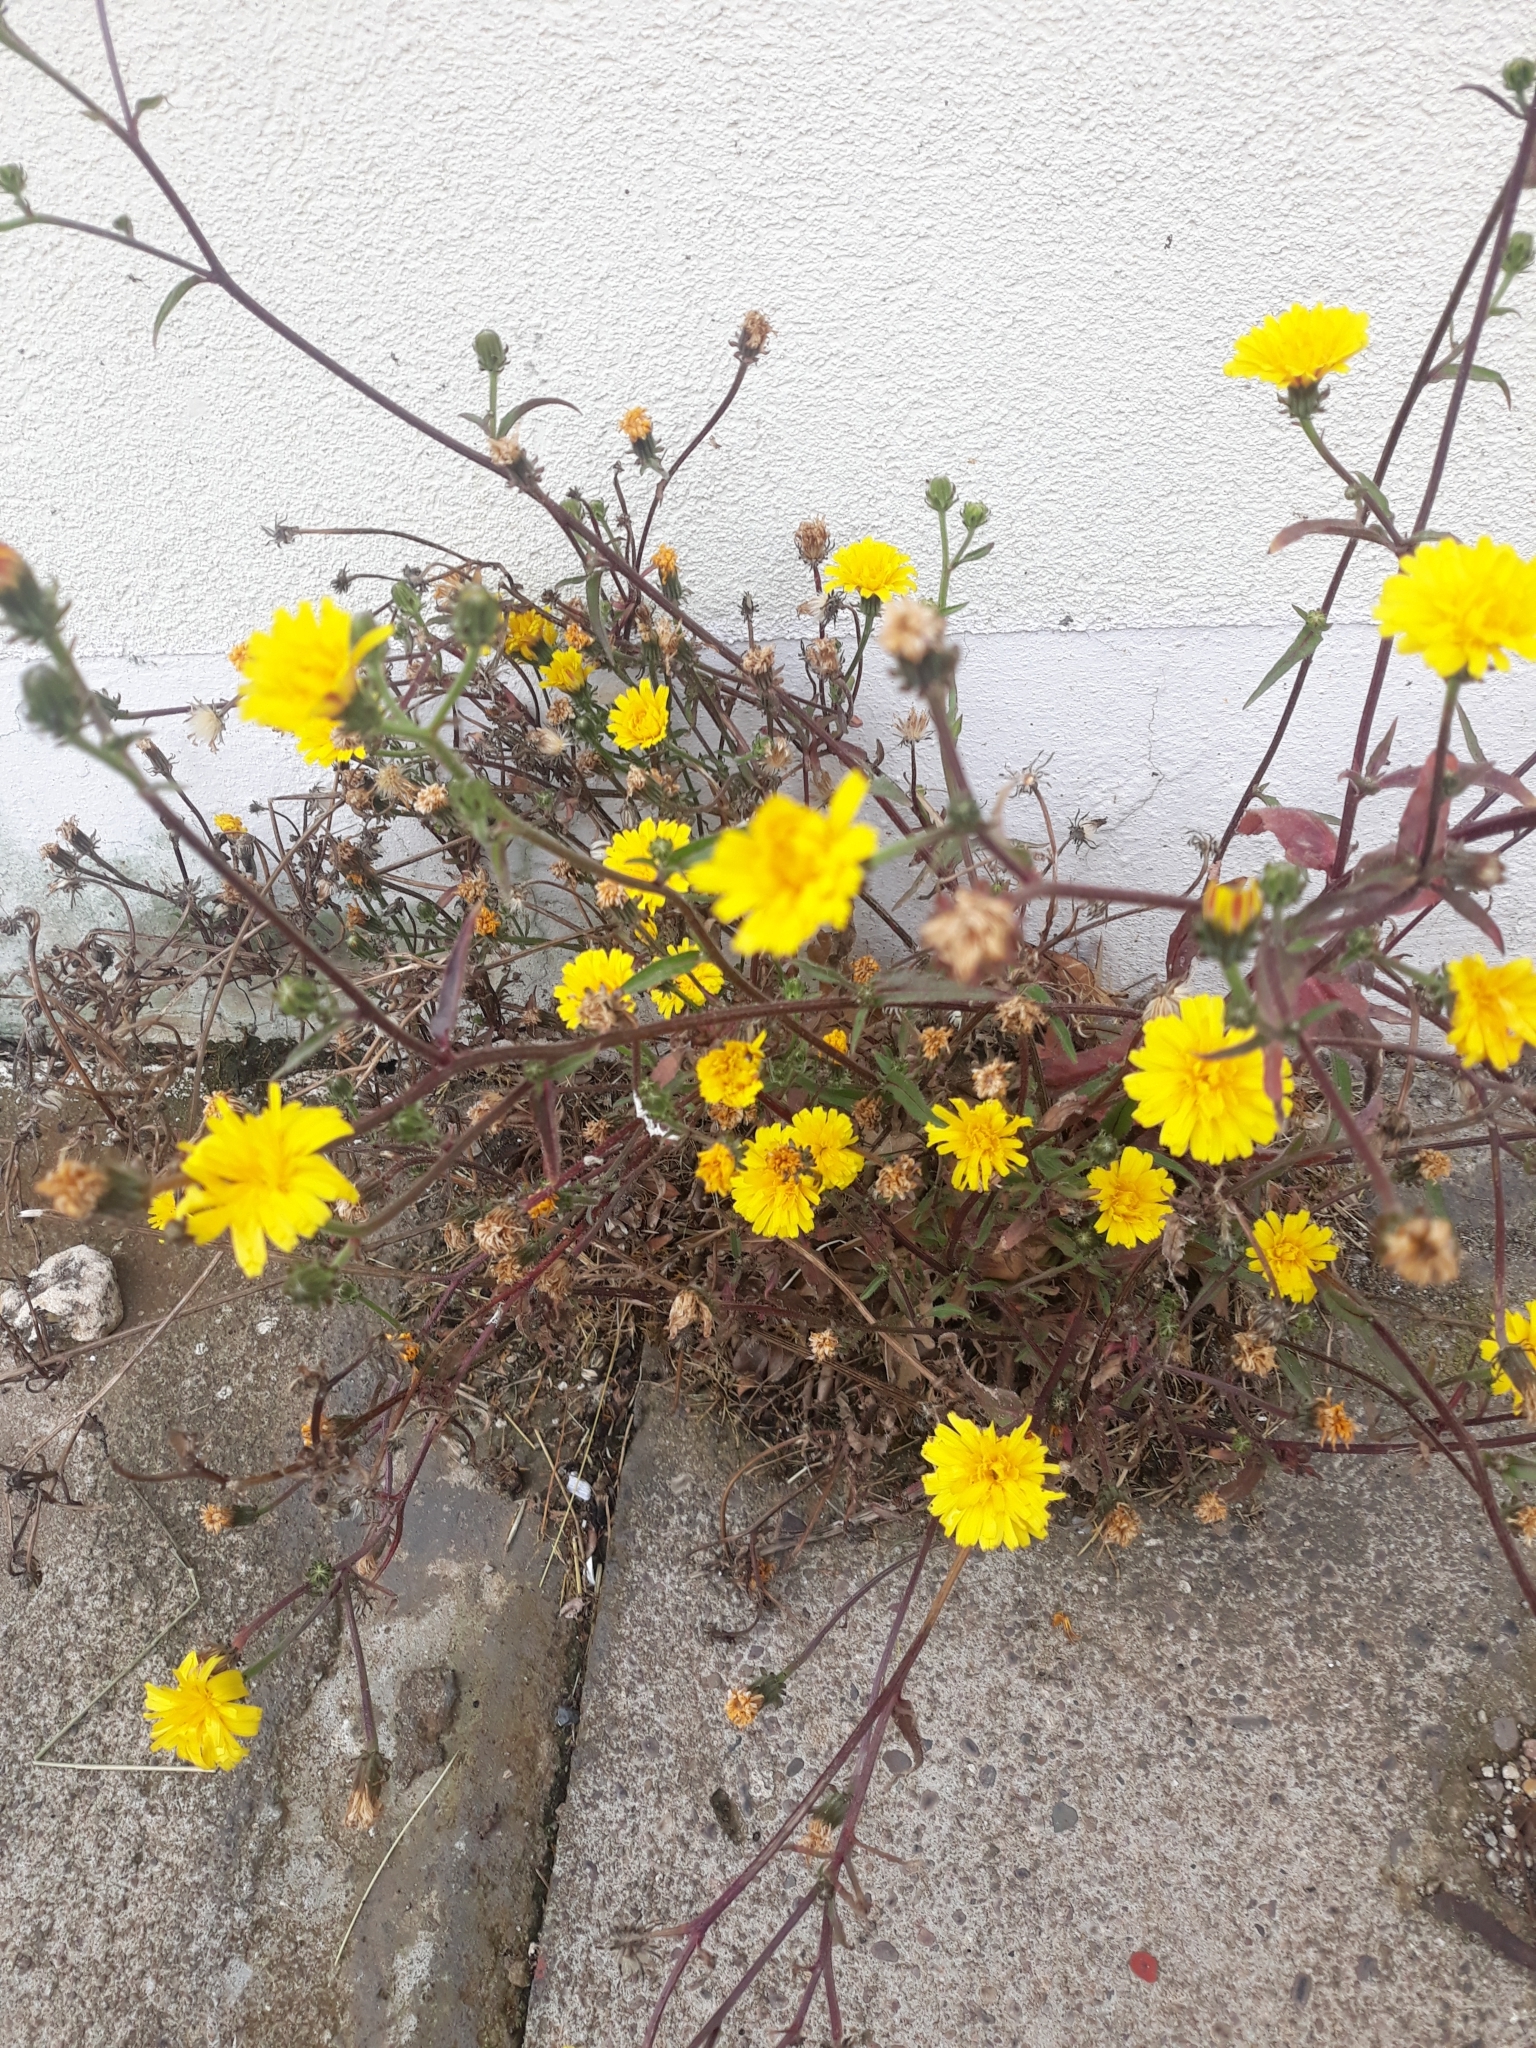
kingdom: Plantae
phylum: Tracheophyta
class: Magnoliopsida
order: Asterales
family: Asteraceae
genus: Picris
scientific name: Picris hieracioides
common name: Hawkweed oxtongue
